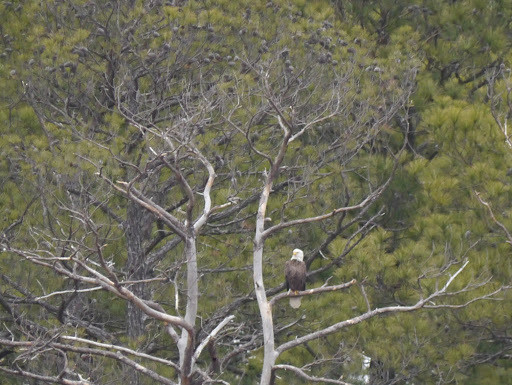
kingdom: Animalia
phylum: Chordata
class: Aves
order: Accipitriformes
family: Accipitridae
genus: Haliaeetus
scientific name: Haliaeetus leucocephalus
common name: Bald eagle
